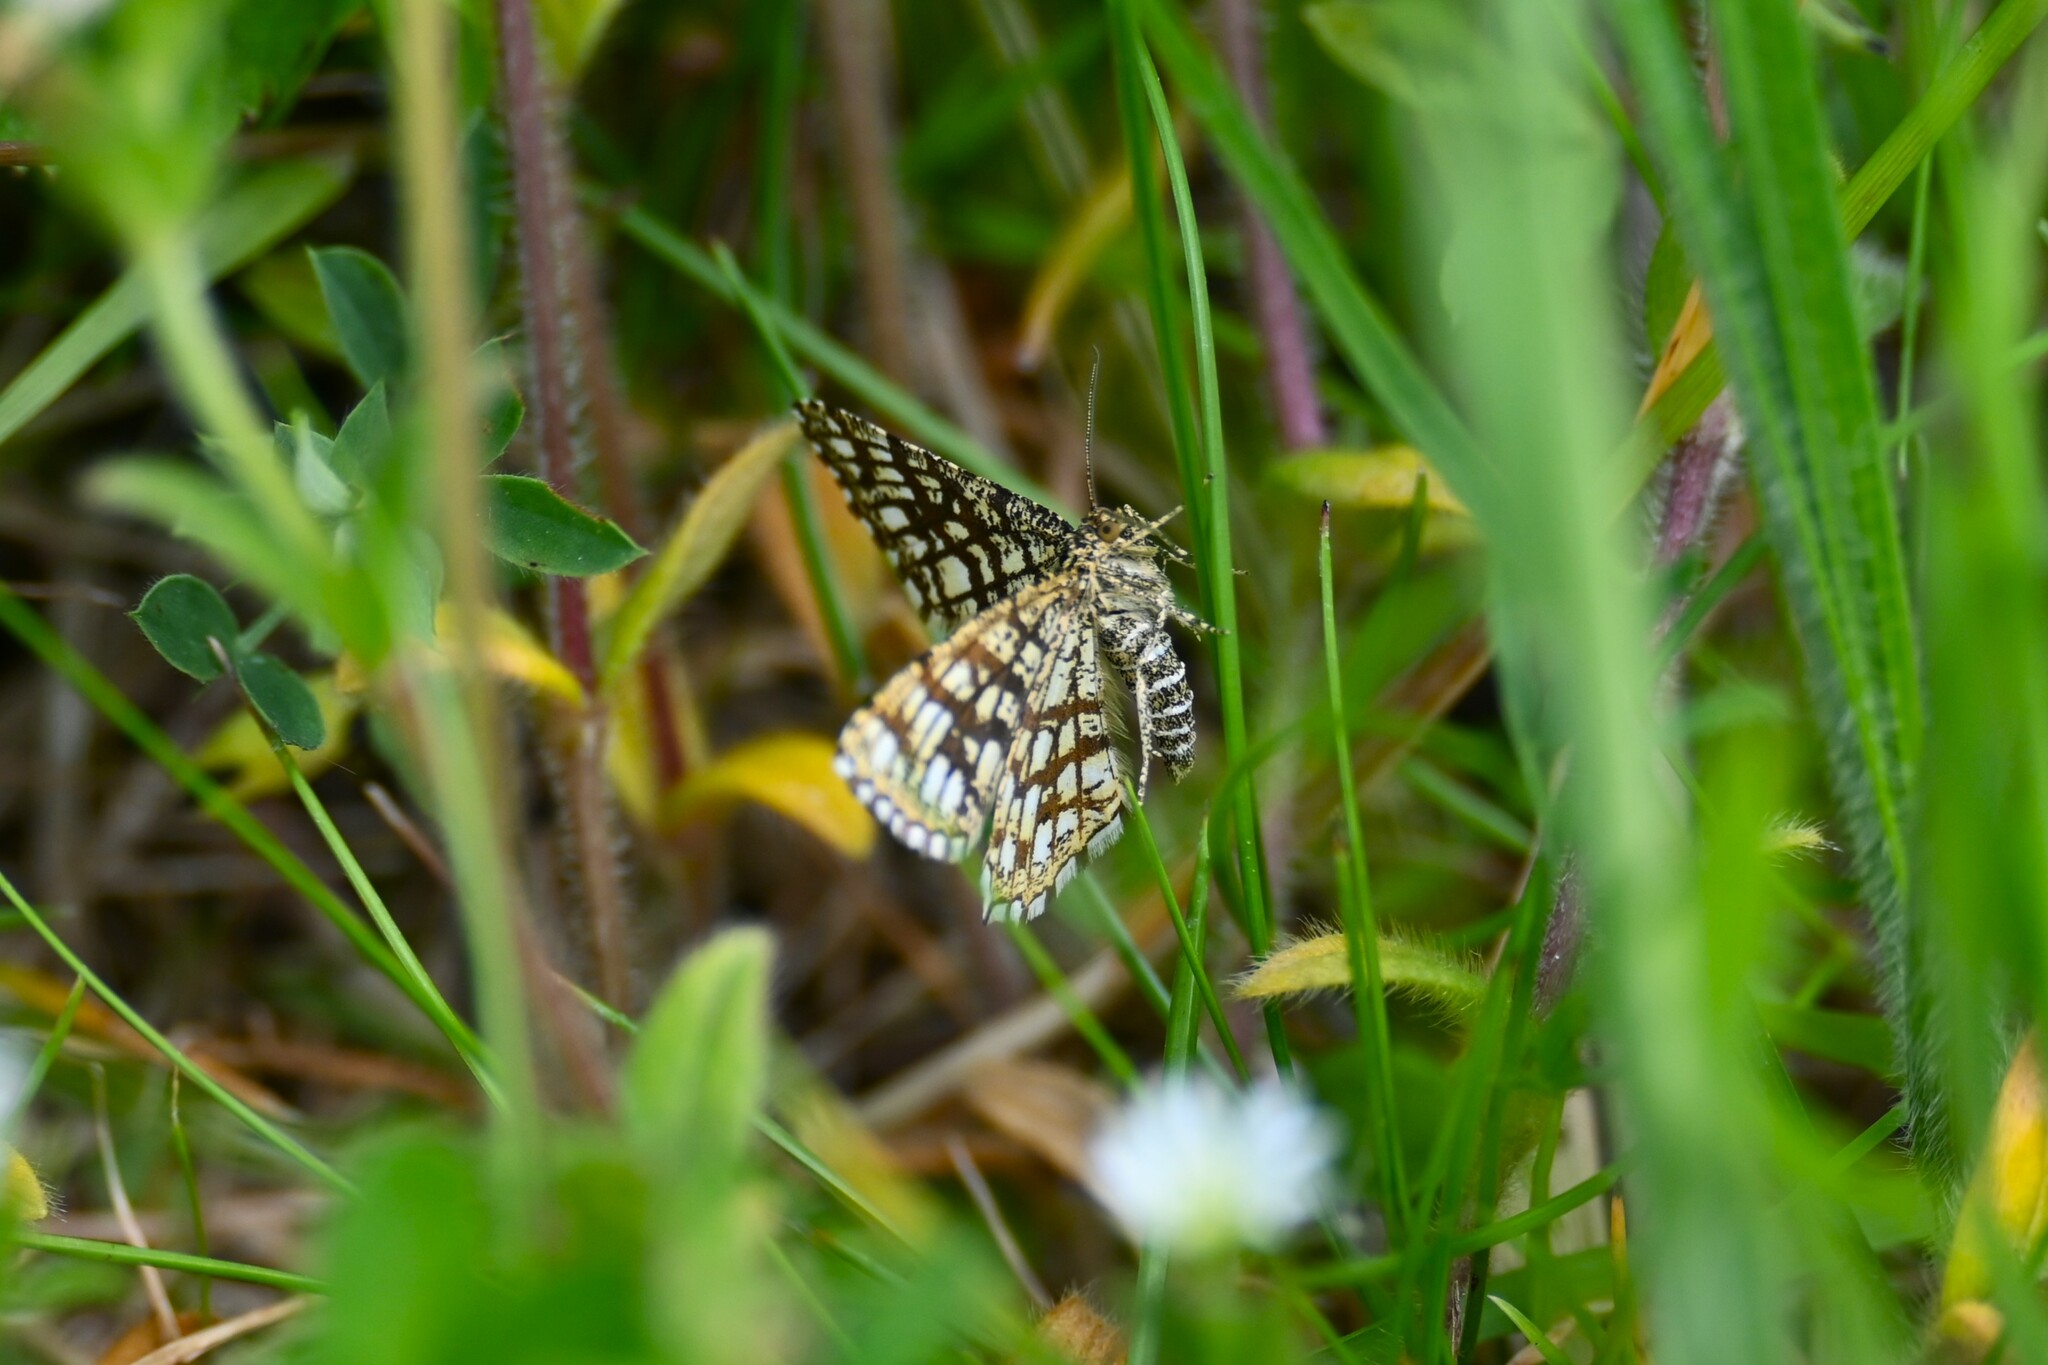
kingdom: Animalia
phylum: Arthropoda
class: Insecta
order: Lepidoptera
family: Geometridae
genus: Chiasmia
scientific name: Chiasmia clathrata
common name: Latticed heath
